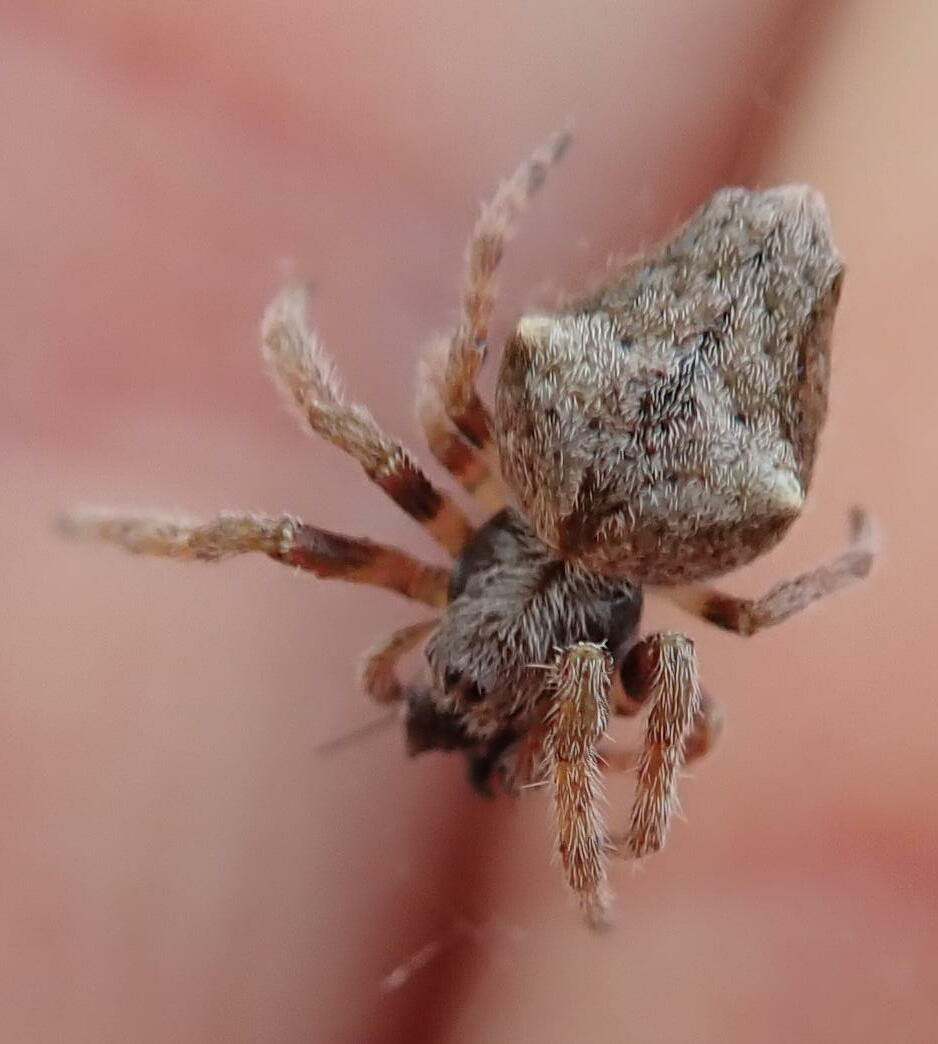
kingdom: Animalia
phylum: Arthropoda
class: Arachnida
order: Araneae
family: Araneidae
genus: Eriophora
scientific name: Eriophora pustulosa
